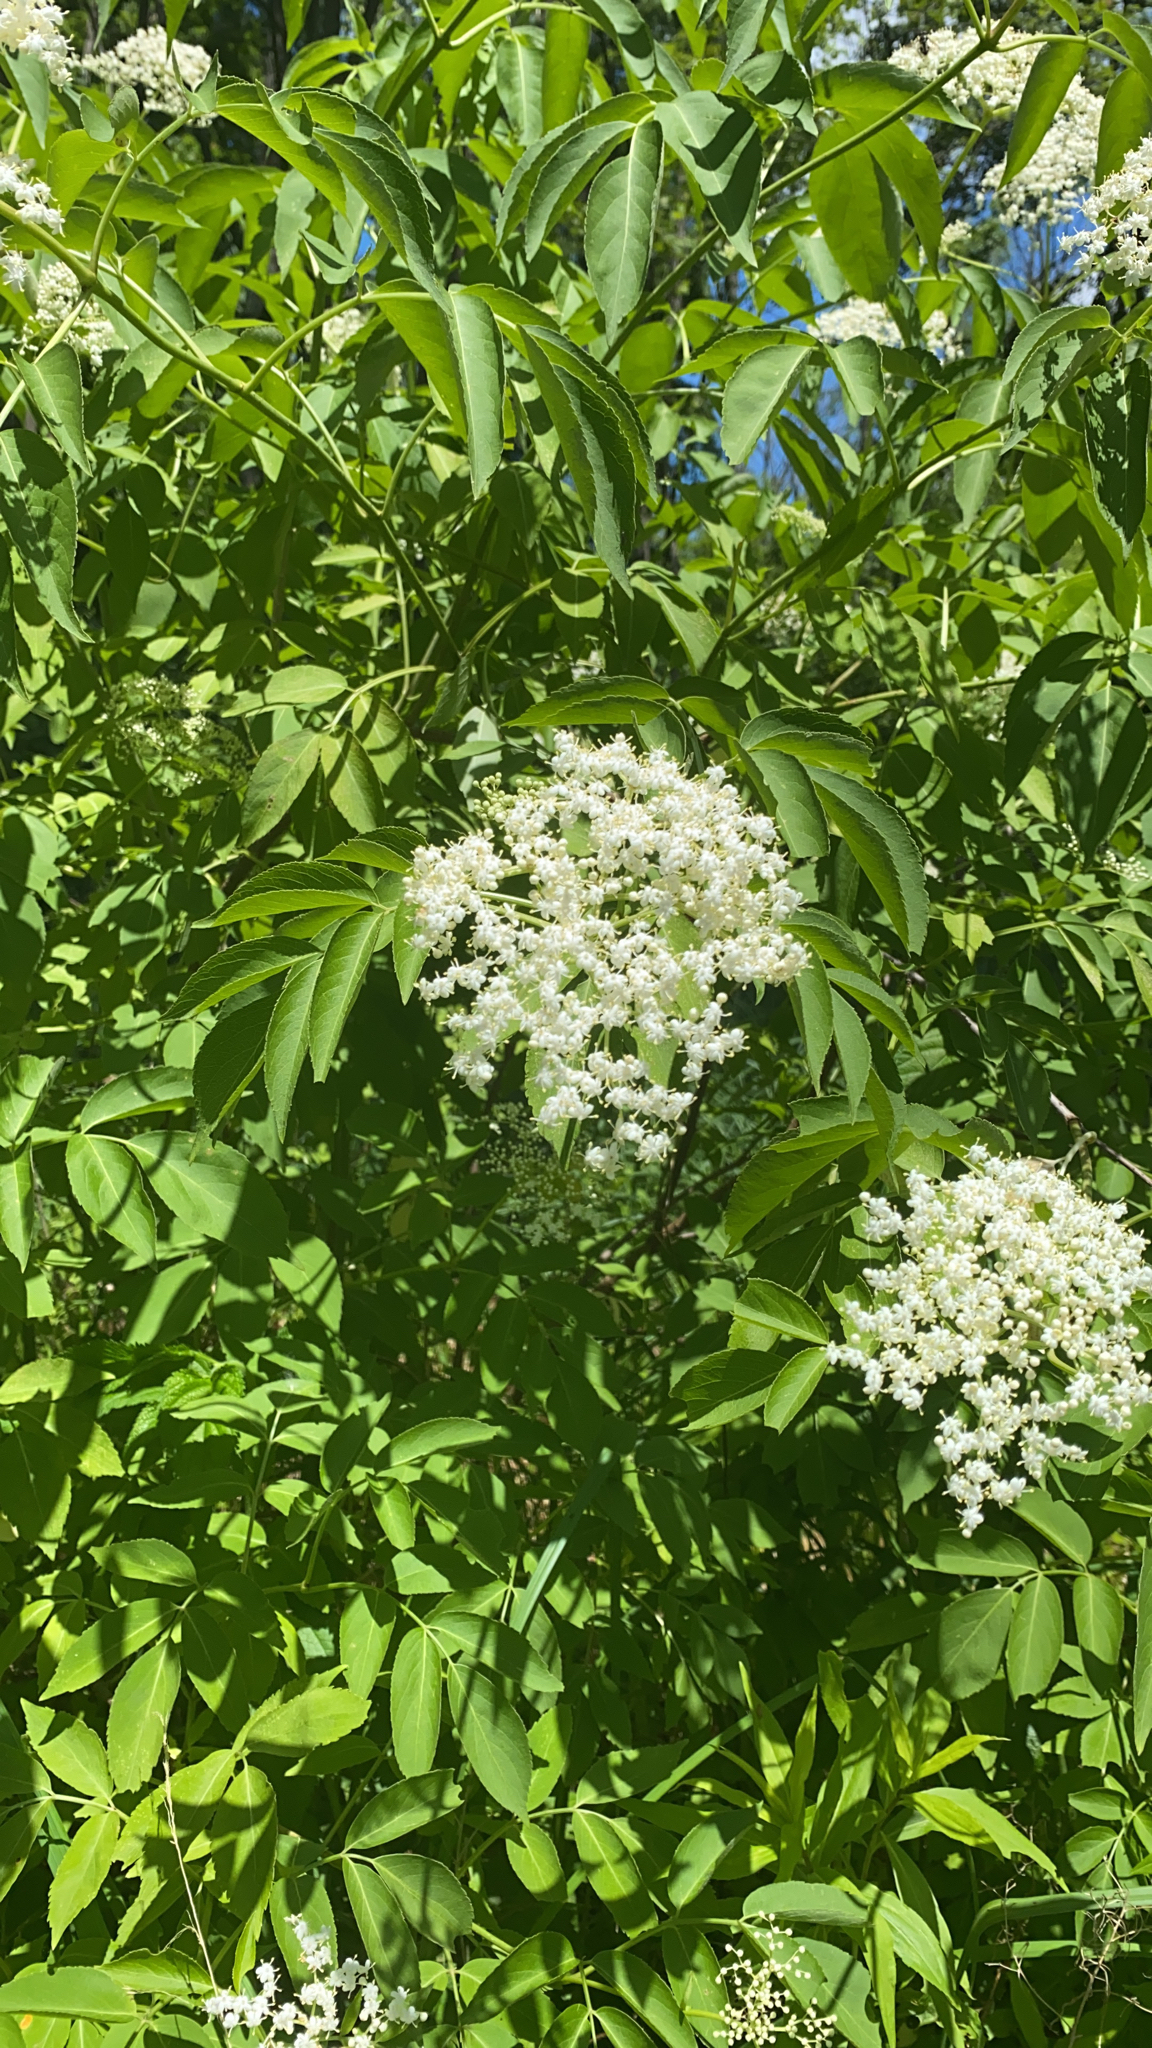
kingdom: Plantae
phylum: Tracheophyta
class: Magnoliopsida
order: Dipsacales
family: Viburnaceae
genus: Sambucus
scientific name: Sambucus canadensis
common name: American elder
